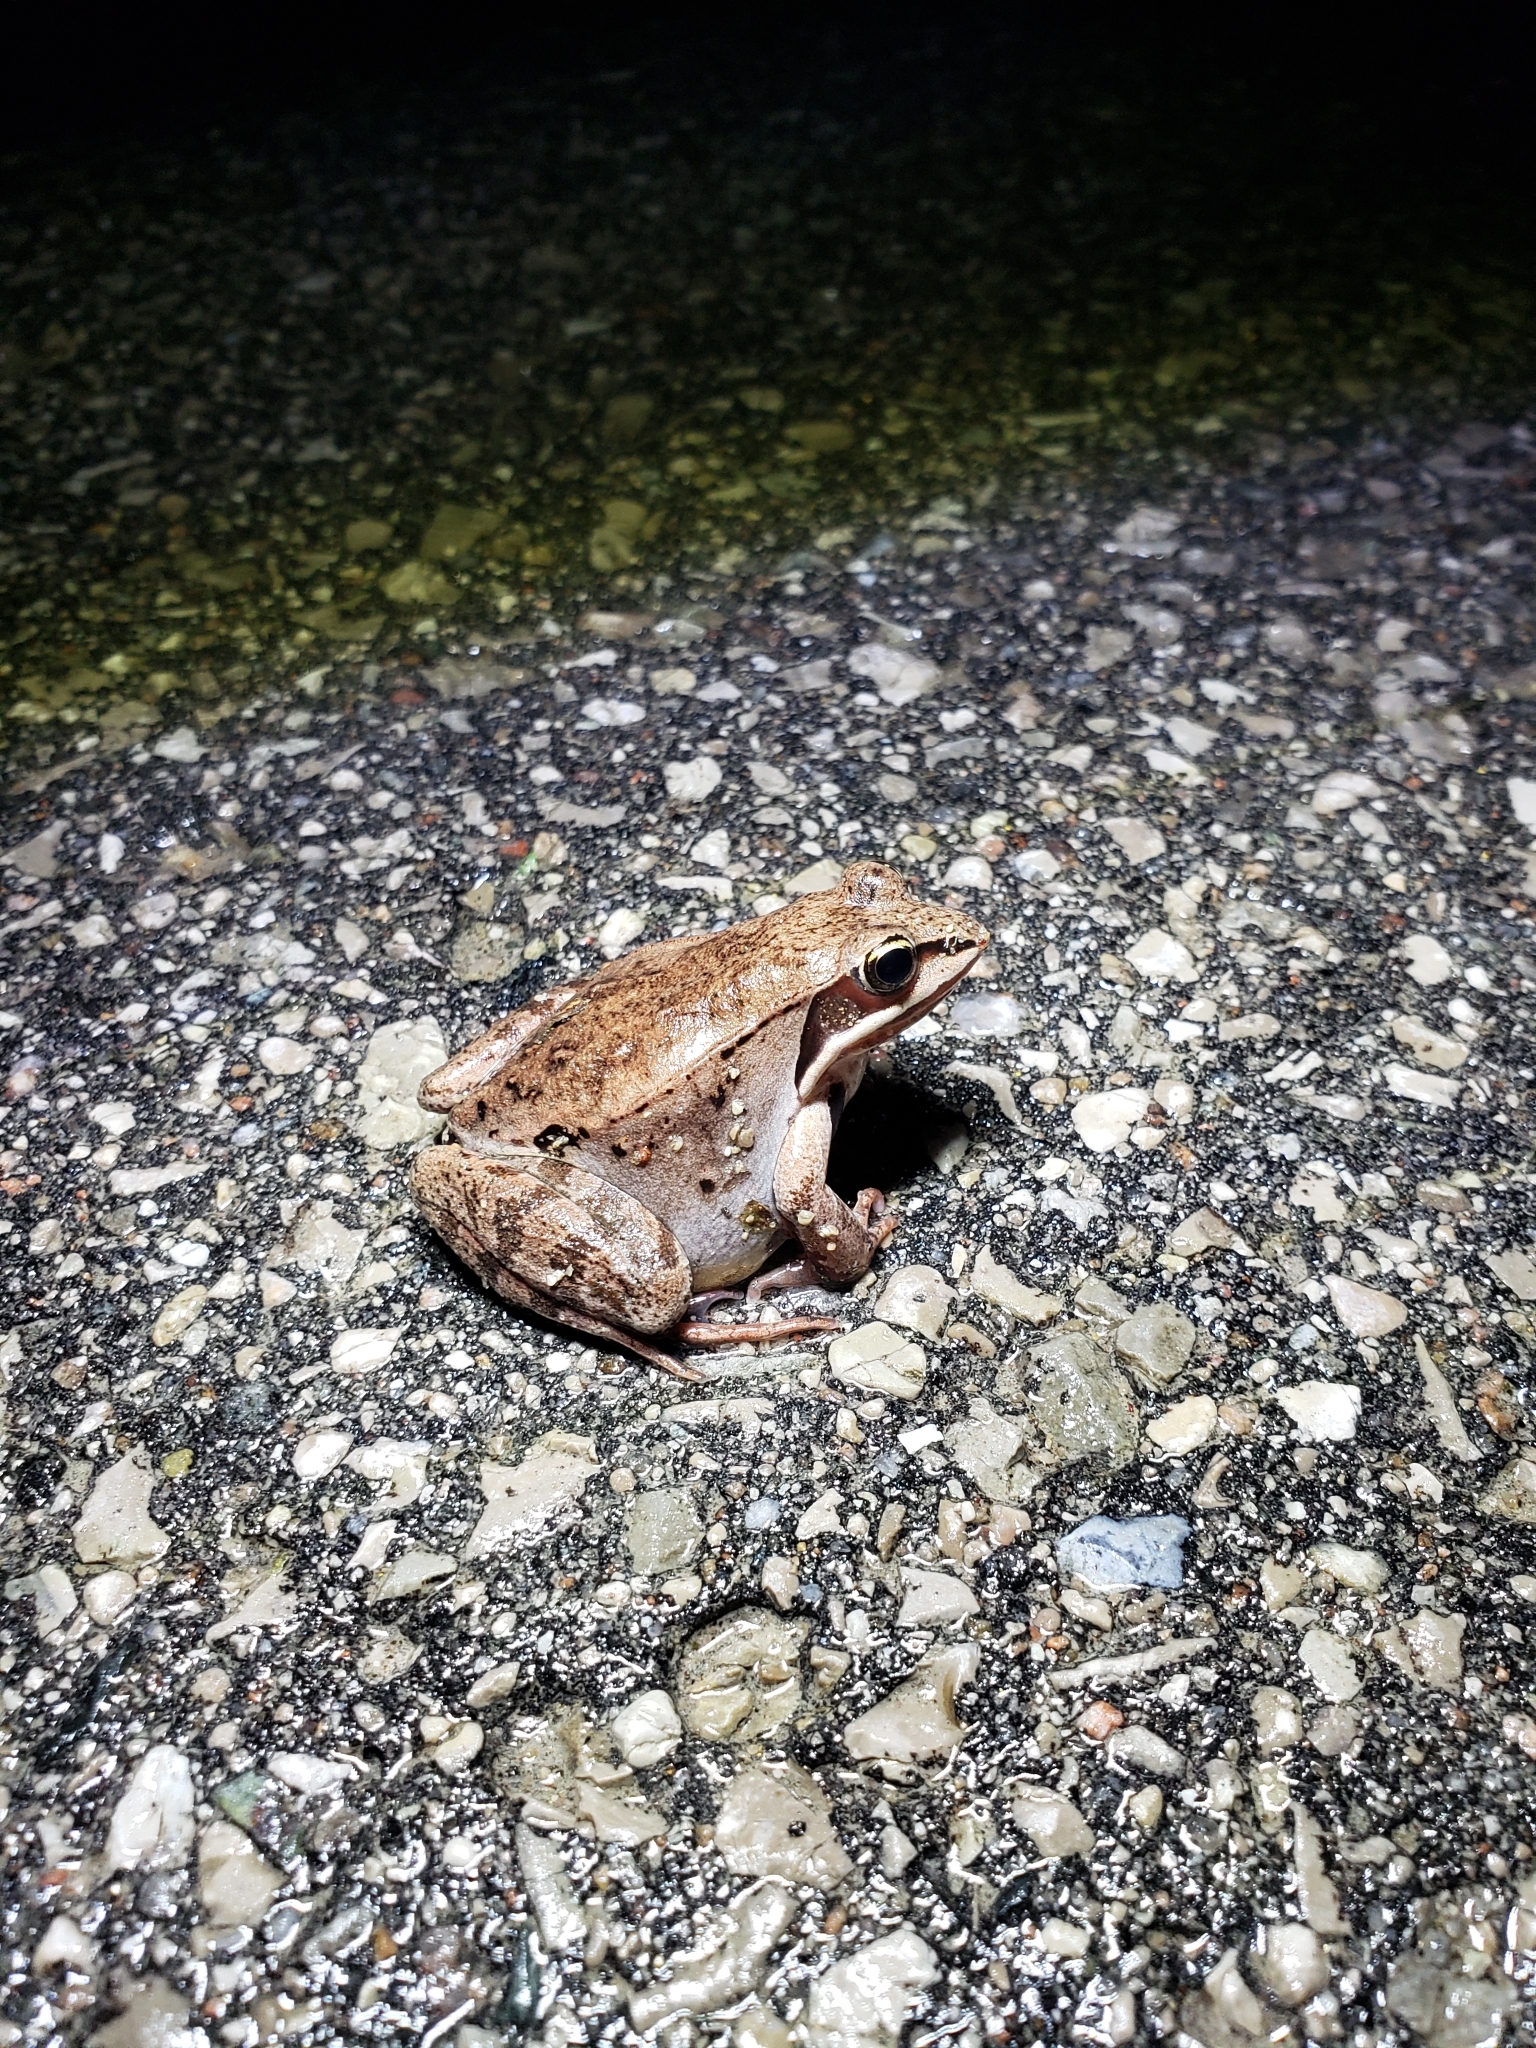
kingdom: Animalia
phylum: Chordata
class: Amphibia
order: Anura
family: Ranidae
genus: Lithobates
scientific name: Lithobates sylvaticus
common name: Wood frog
